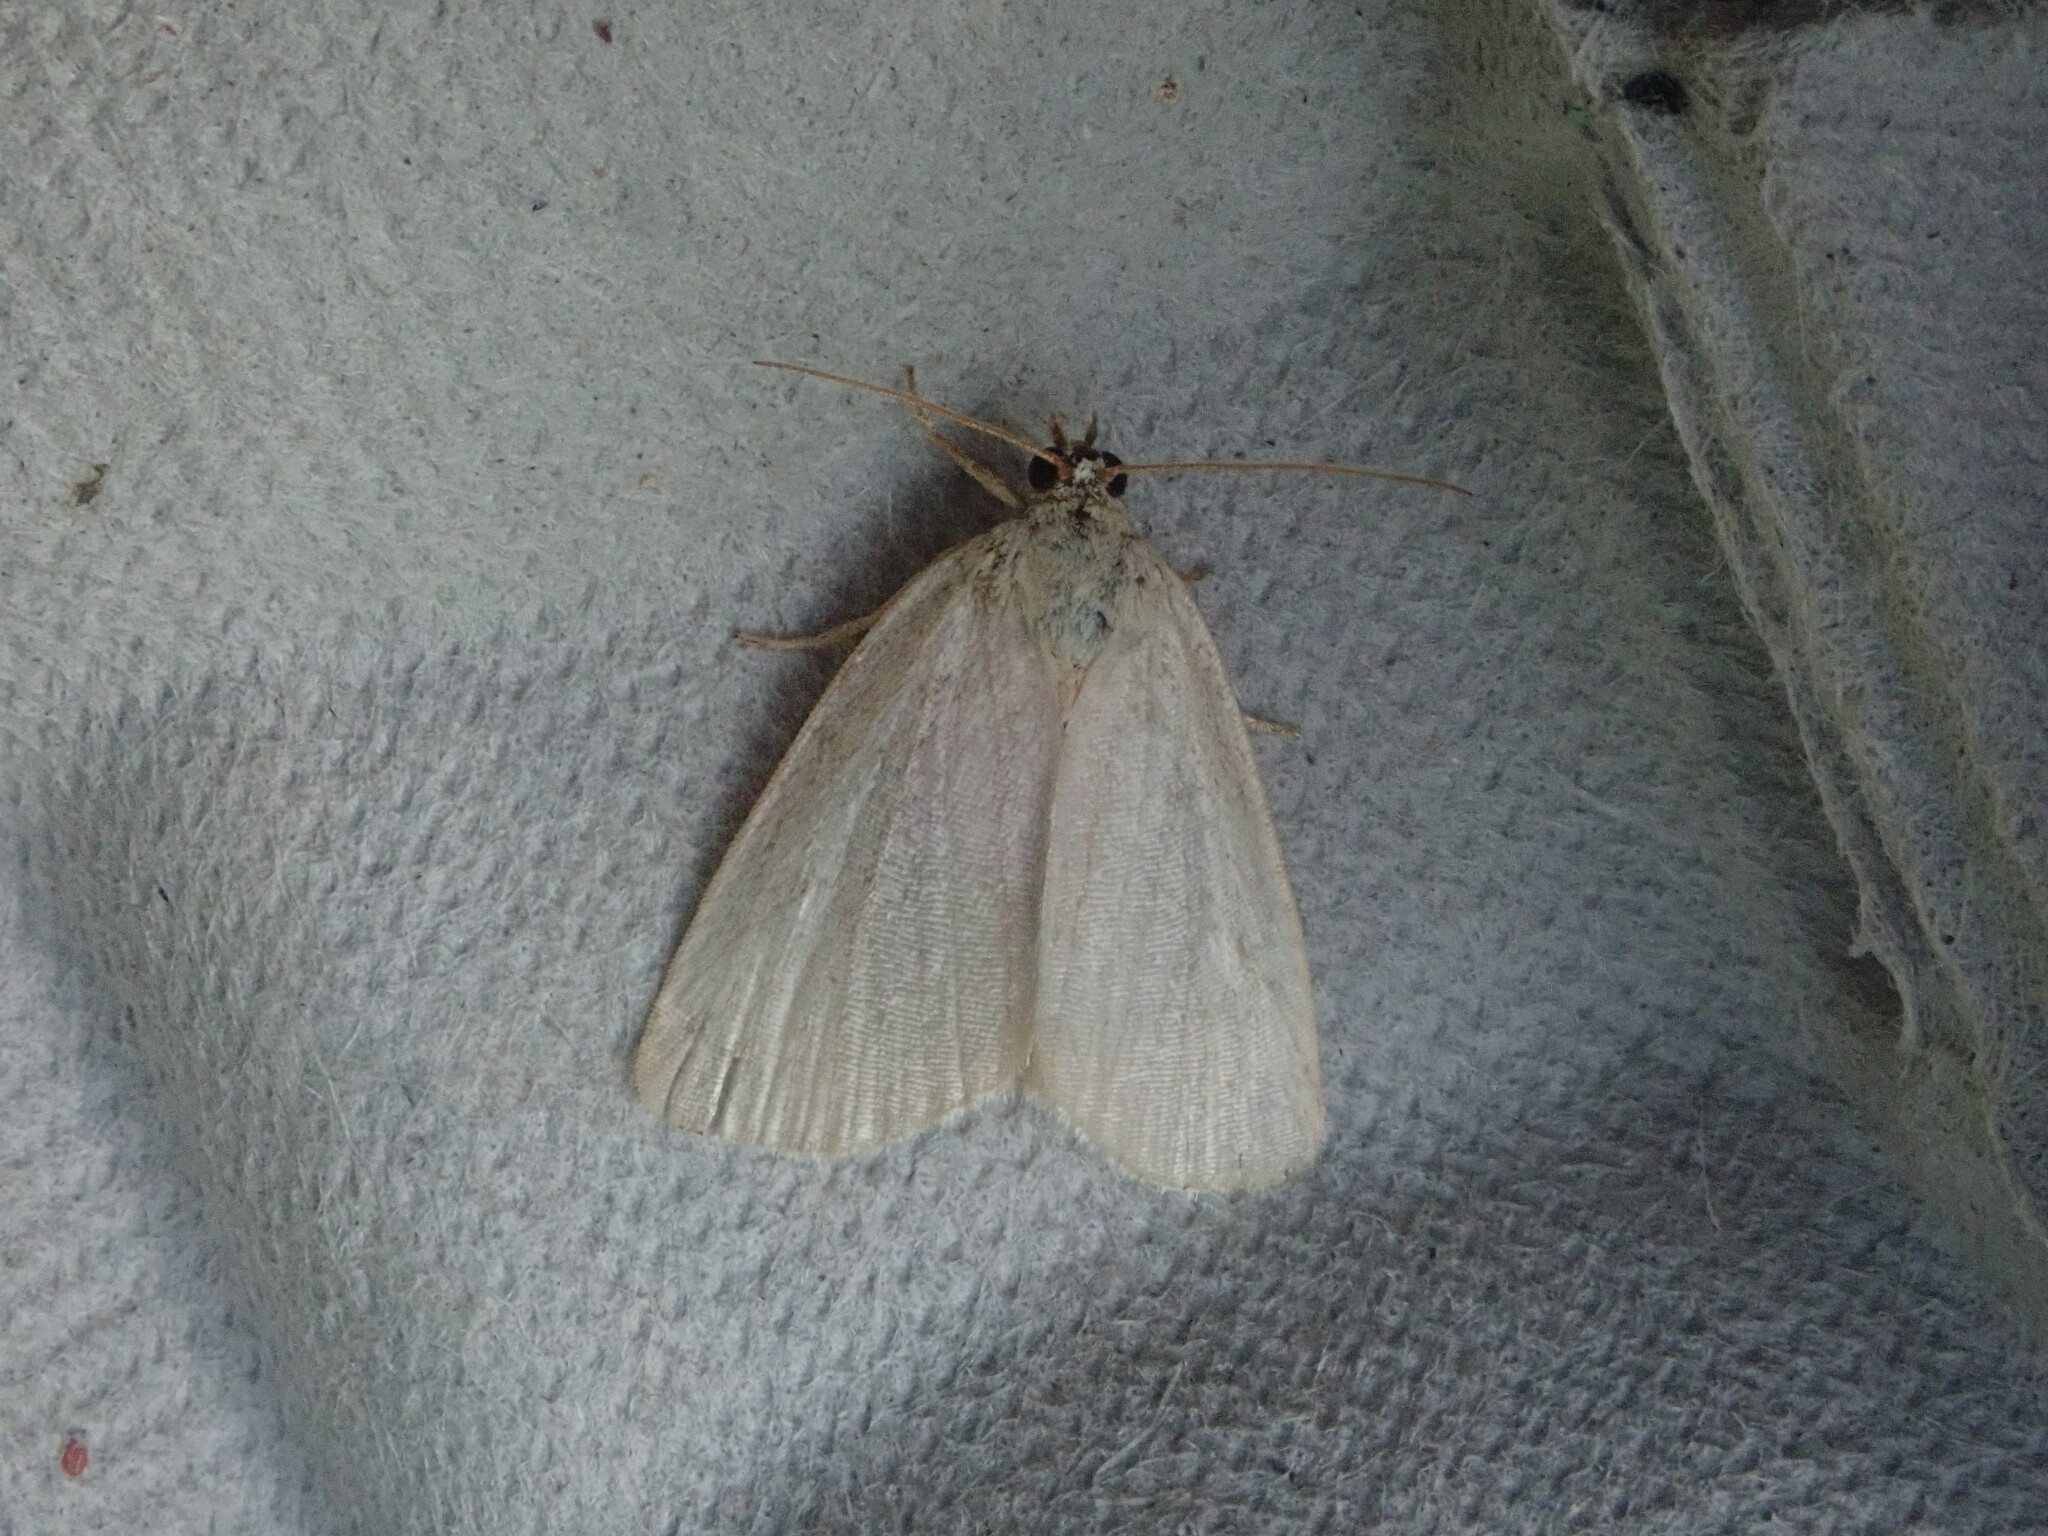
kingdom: Animalia
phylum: Arthropoda
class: Insecta
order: Lepidoptera
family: Noctuidae
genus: Protodeltote
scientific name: Protodeltote albidula
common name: Pale glyph
